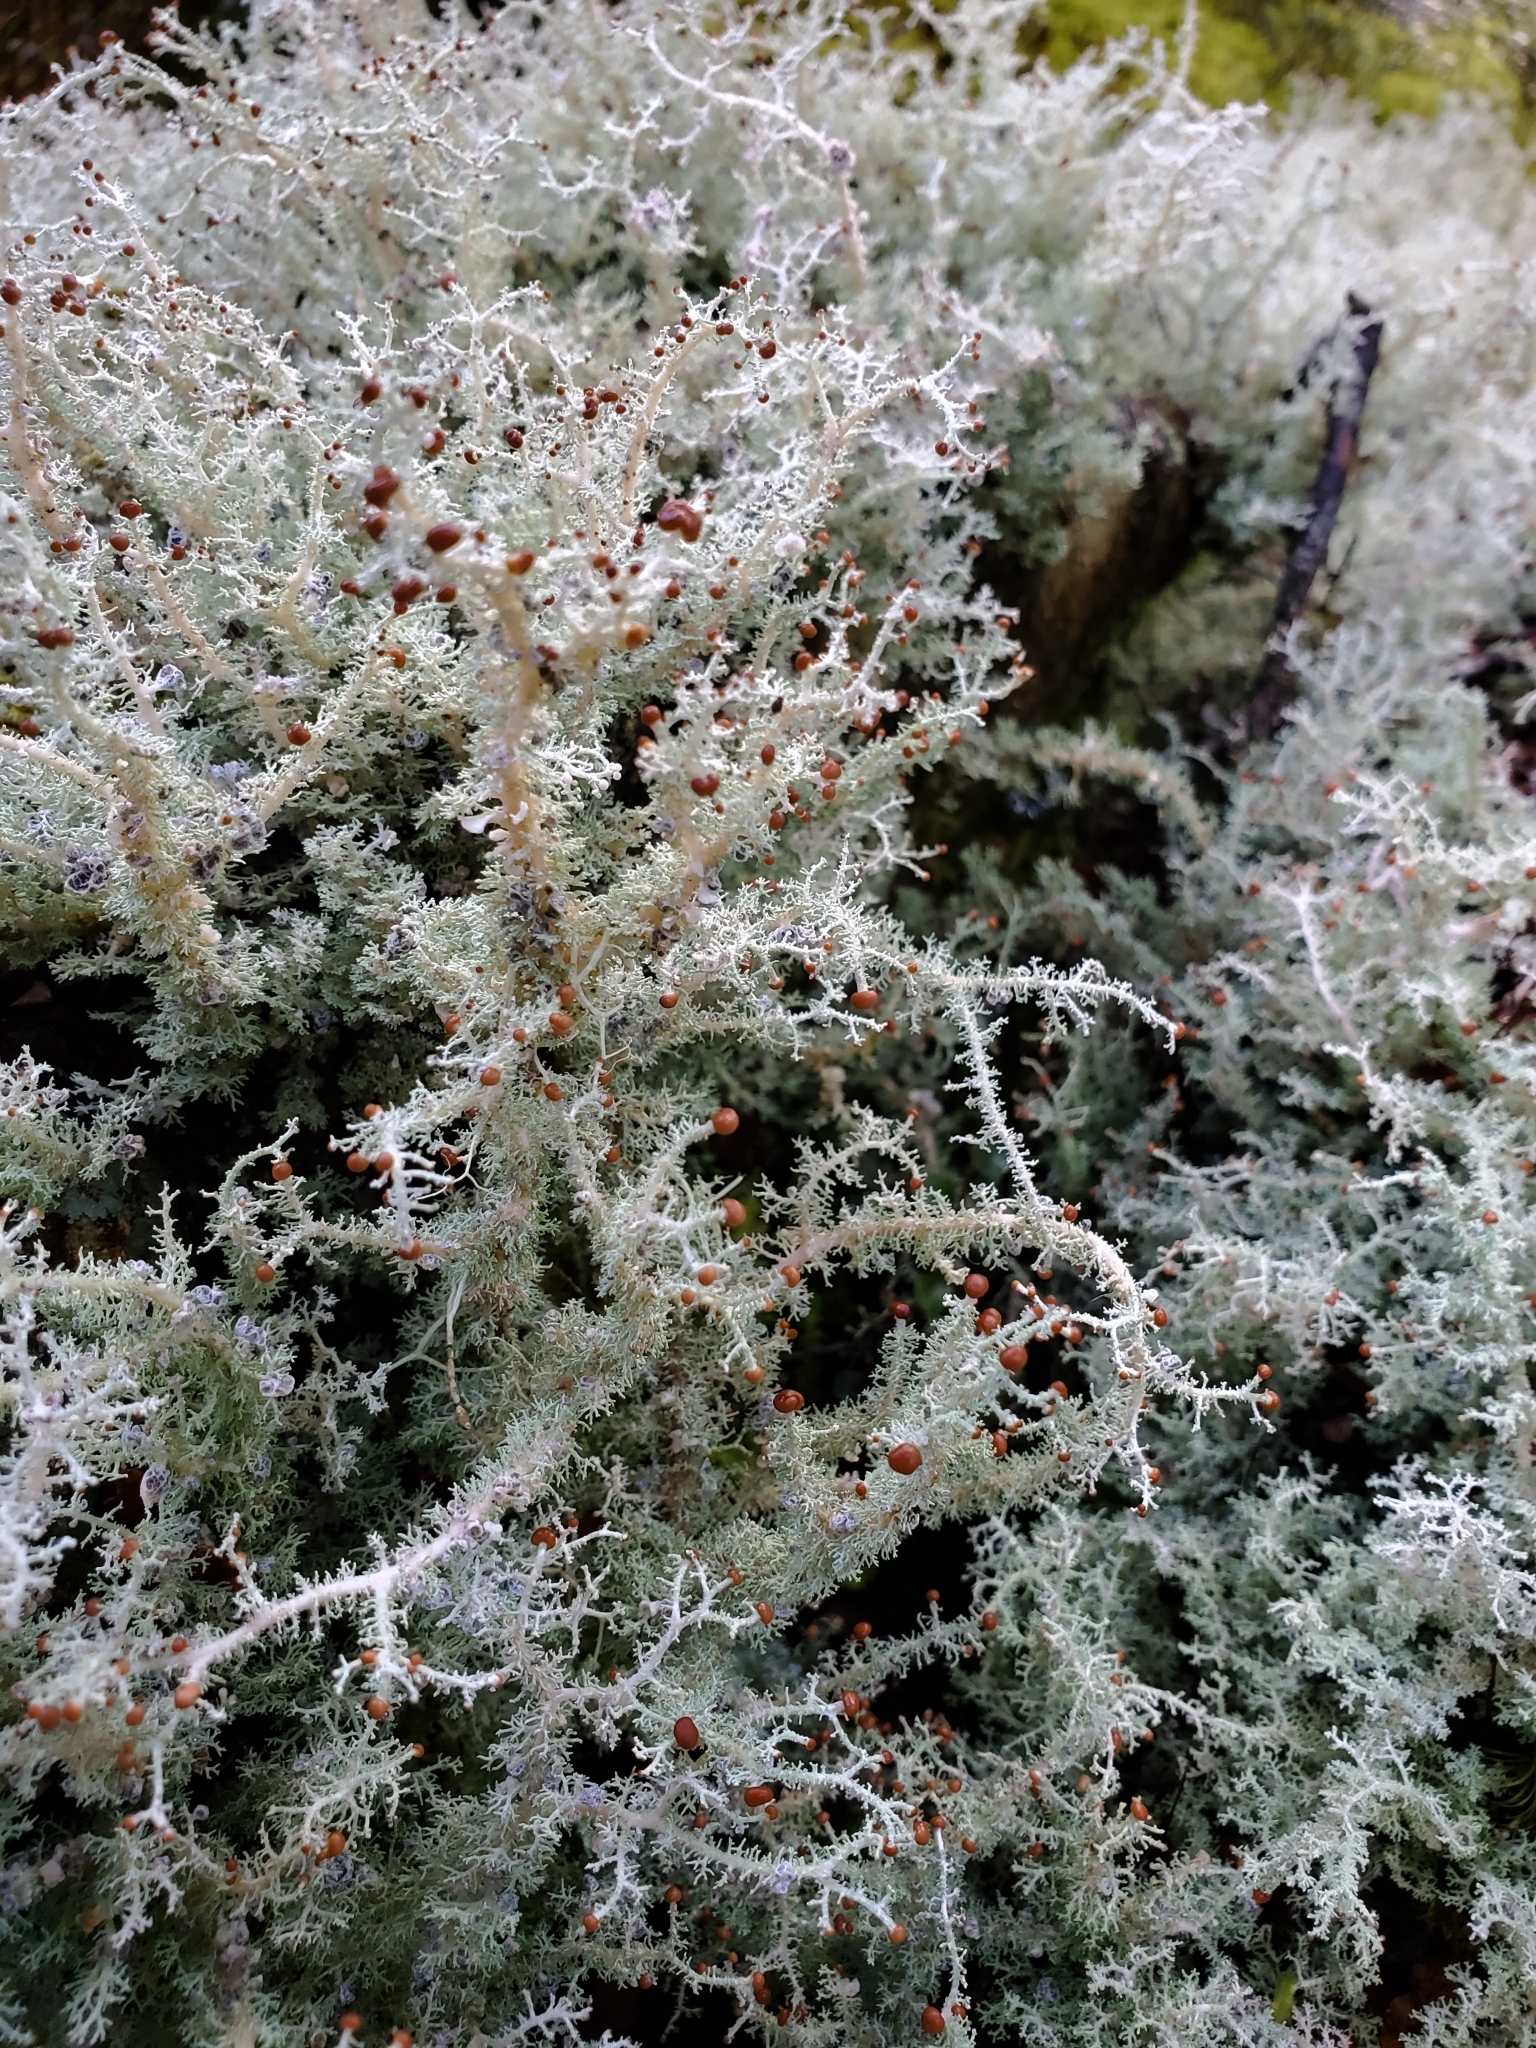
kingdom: Fungi
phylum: Ascomycota
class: Lecanoromycetes
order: Lecanorales
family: Stereocaulaceae
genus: Stereocaulon
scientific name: Stereocaulon ramulosum
